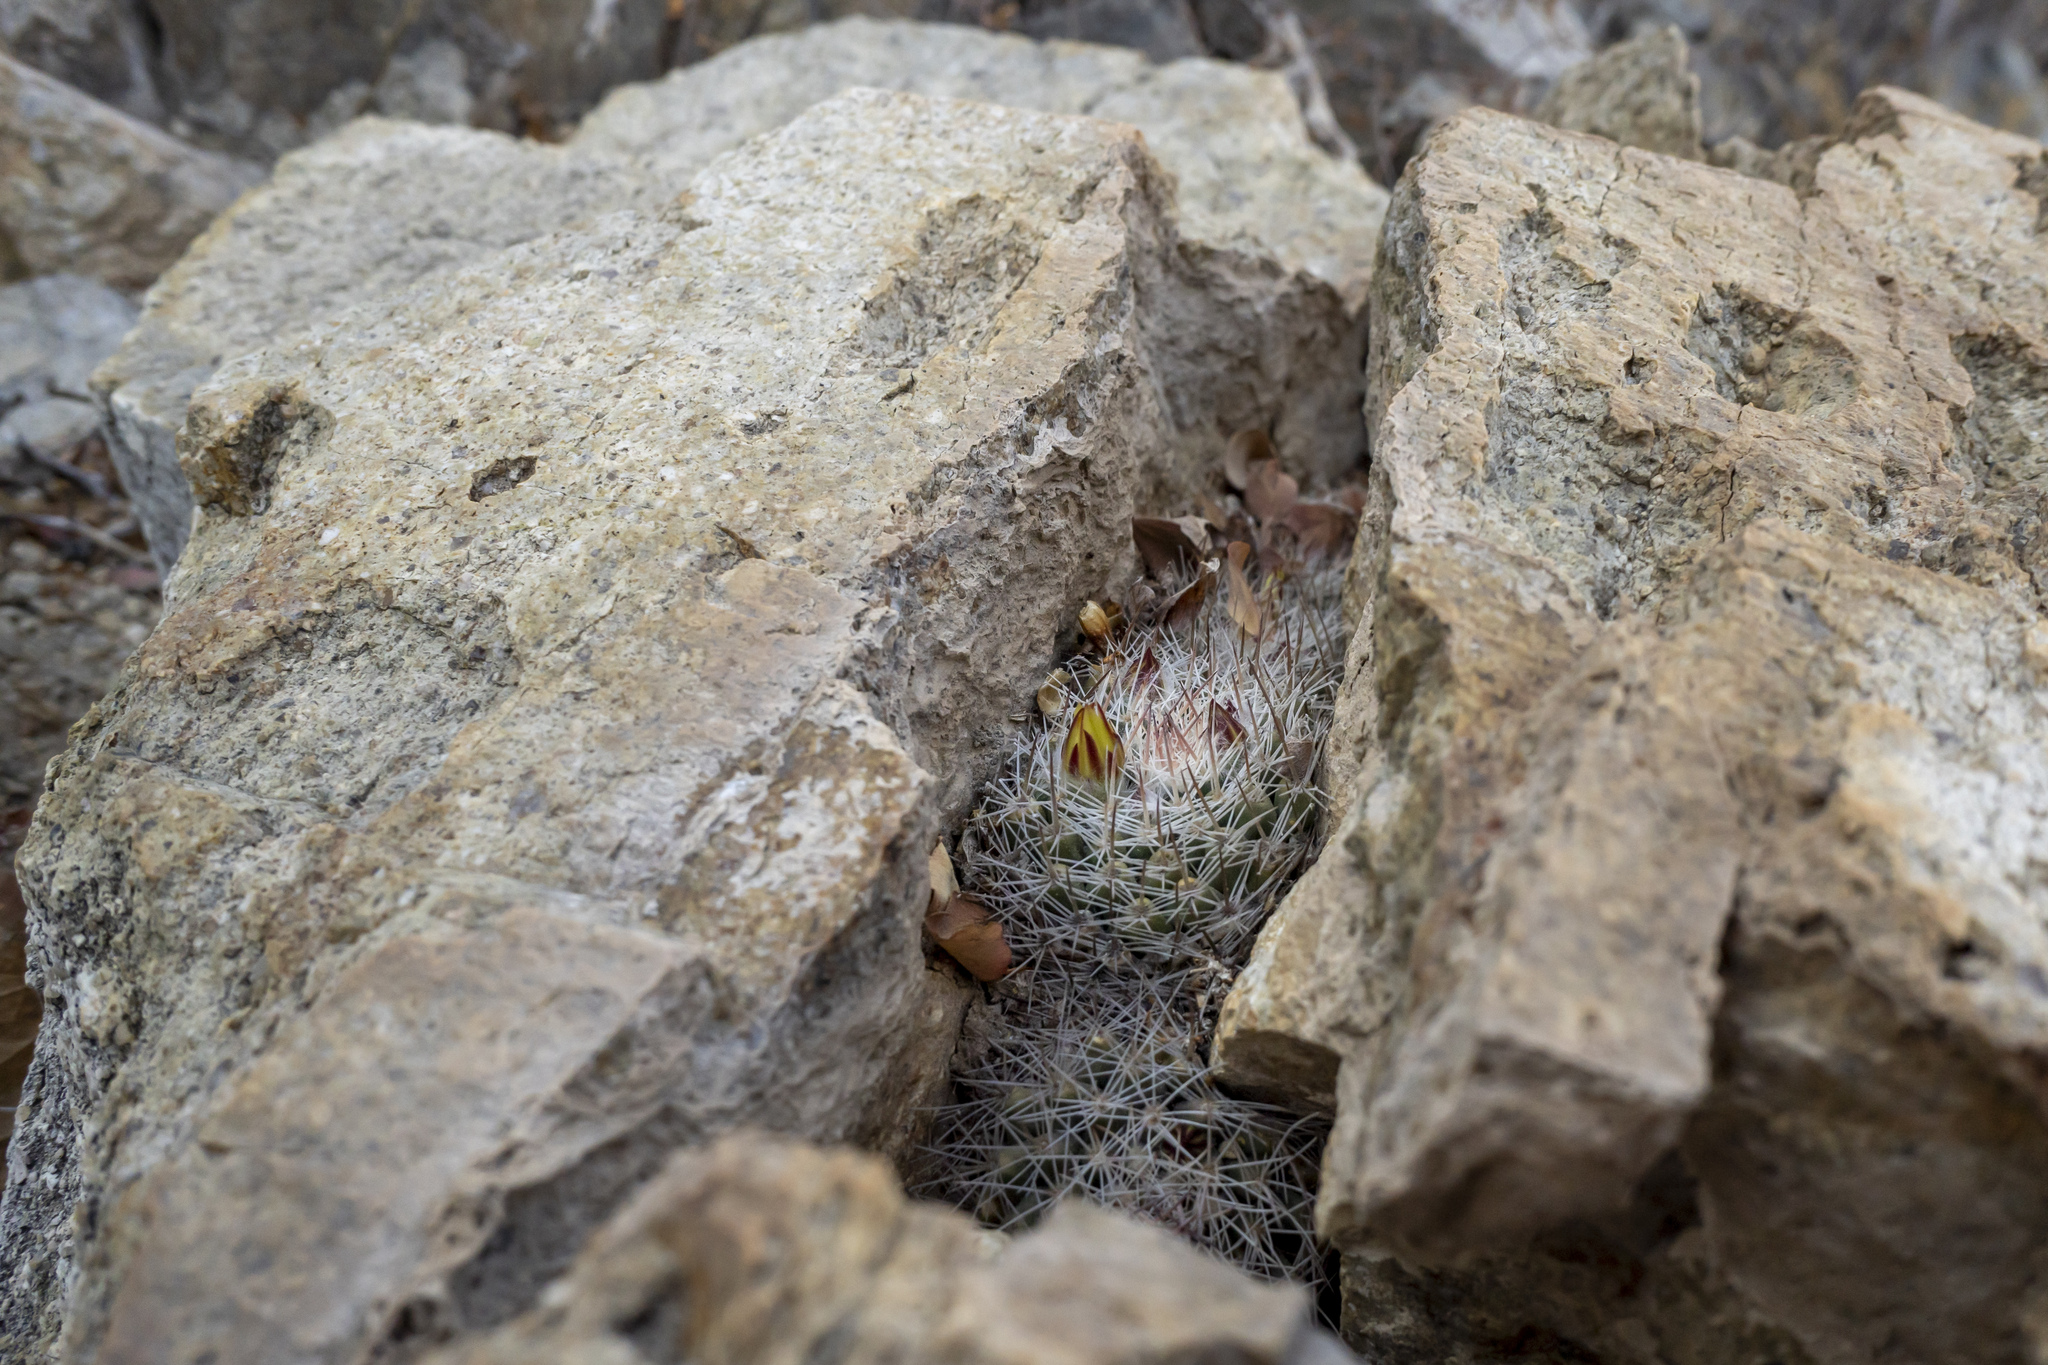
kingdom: Plantae
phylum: Tracheophyta
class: Magnoliopsida
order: Caryophyllales
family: Cactaceae
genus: Mammillaria
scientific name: Mammillaria petrophila
